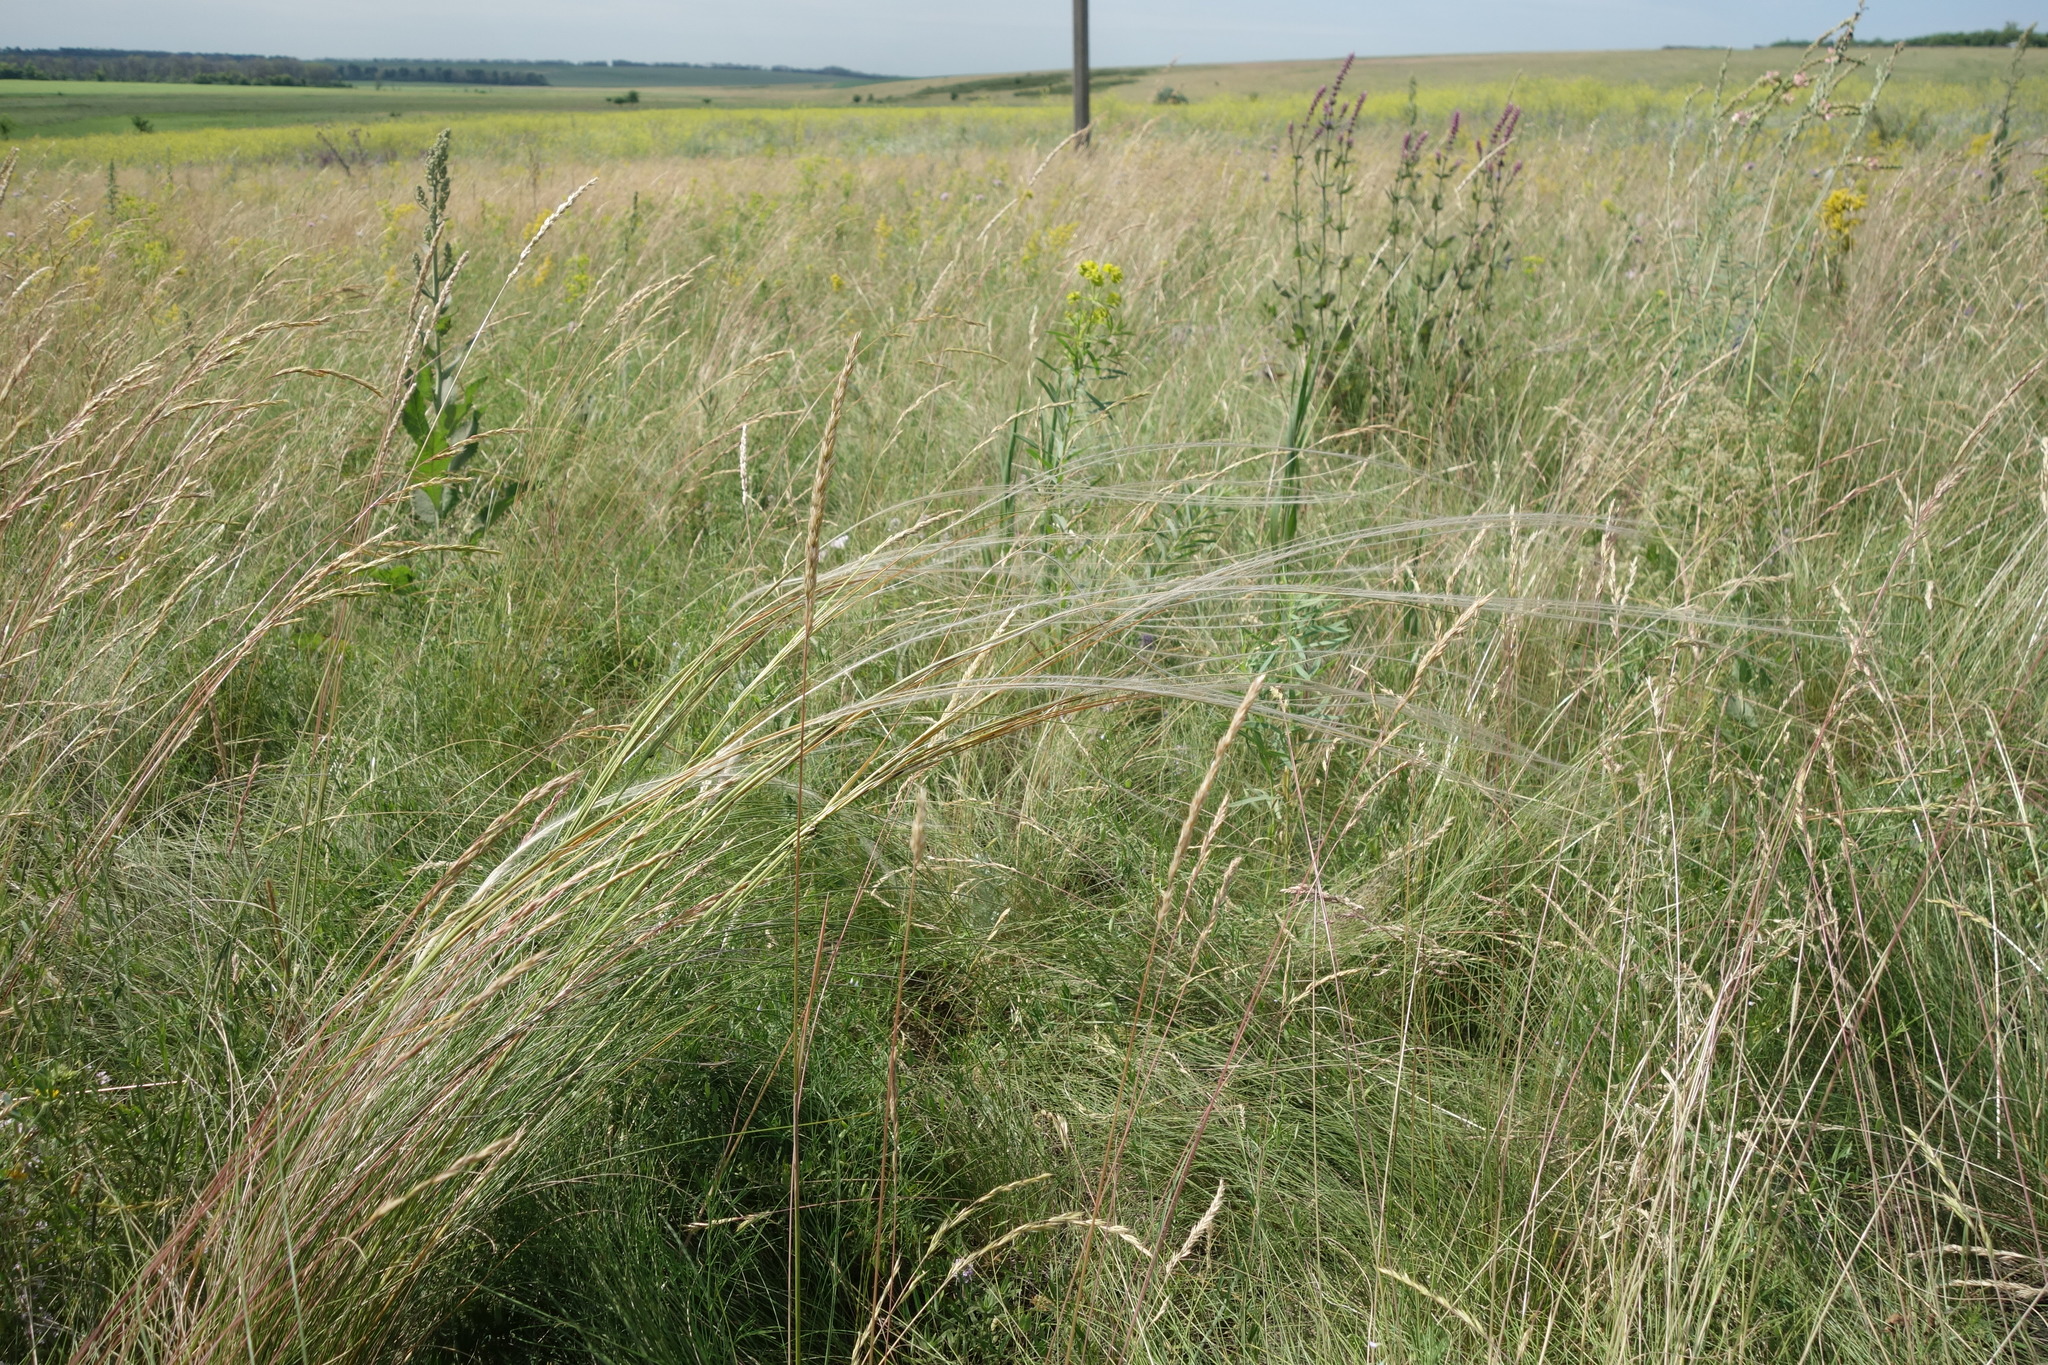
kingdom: Plantae
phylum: Tracheophyta
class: Liliopsida
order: Poales
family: Poaceae
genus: Stipa
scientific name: Stipa tirsa
